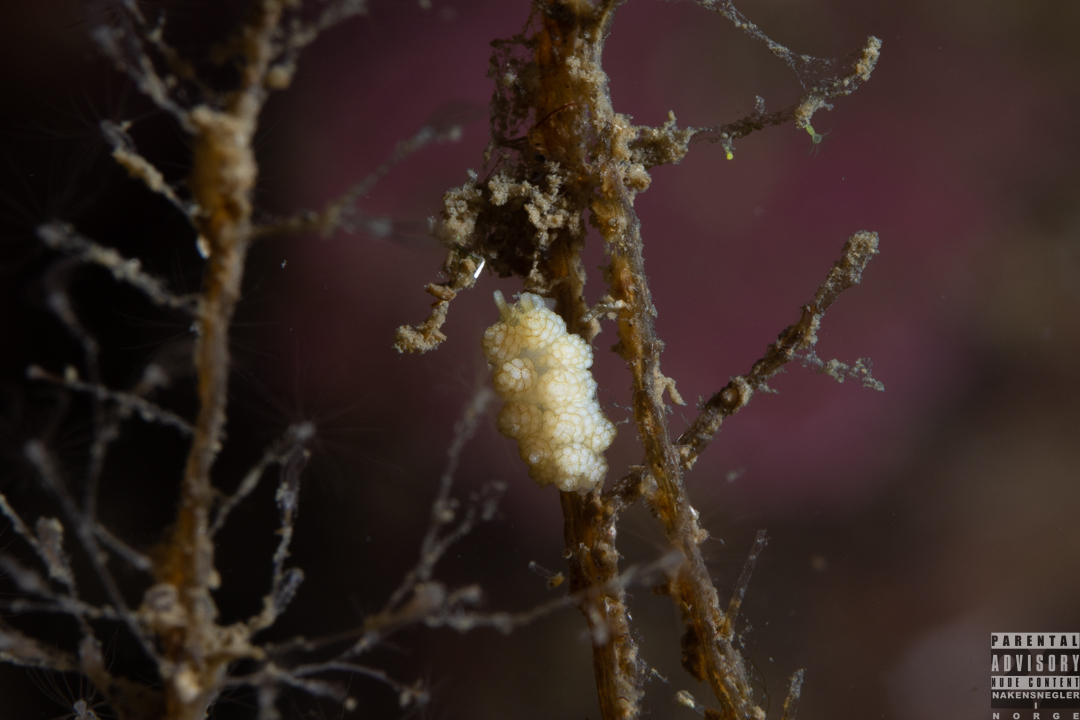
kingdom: Animalia
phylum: Mollusca
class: Gastropoda
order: Nudibranchia
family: Dotidae
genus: Doto
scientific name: Doto fragilis
